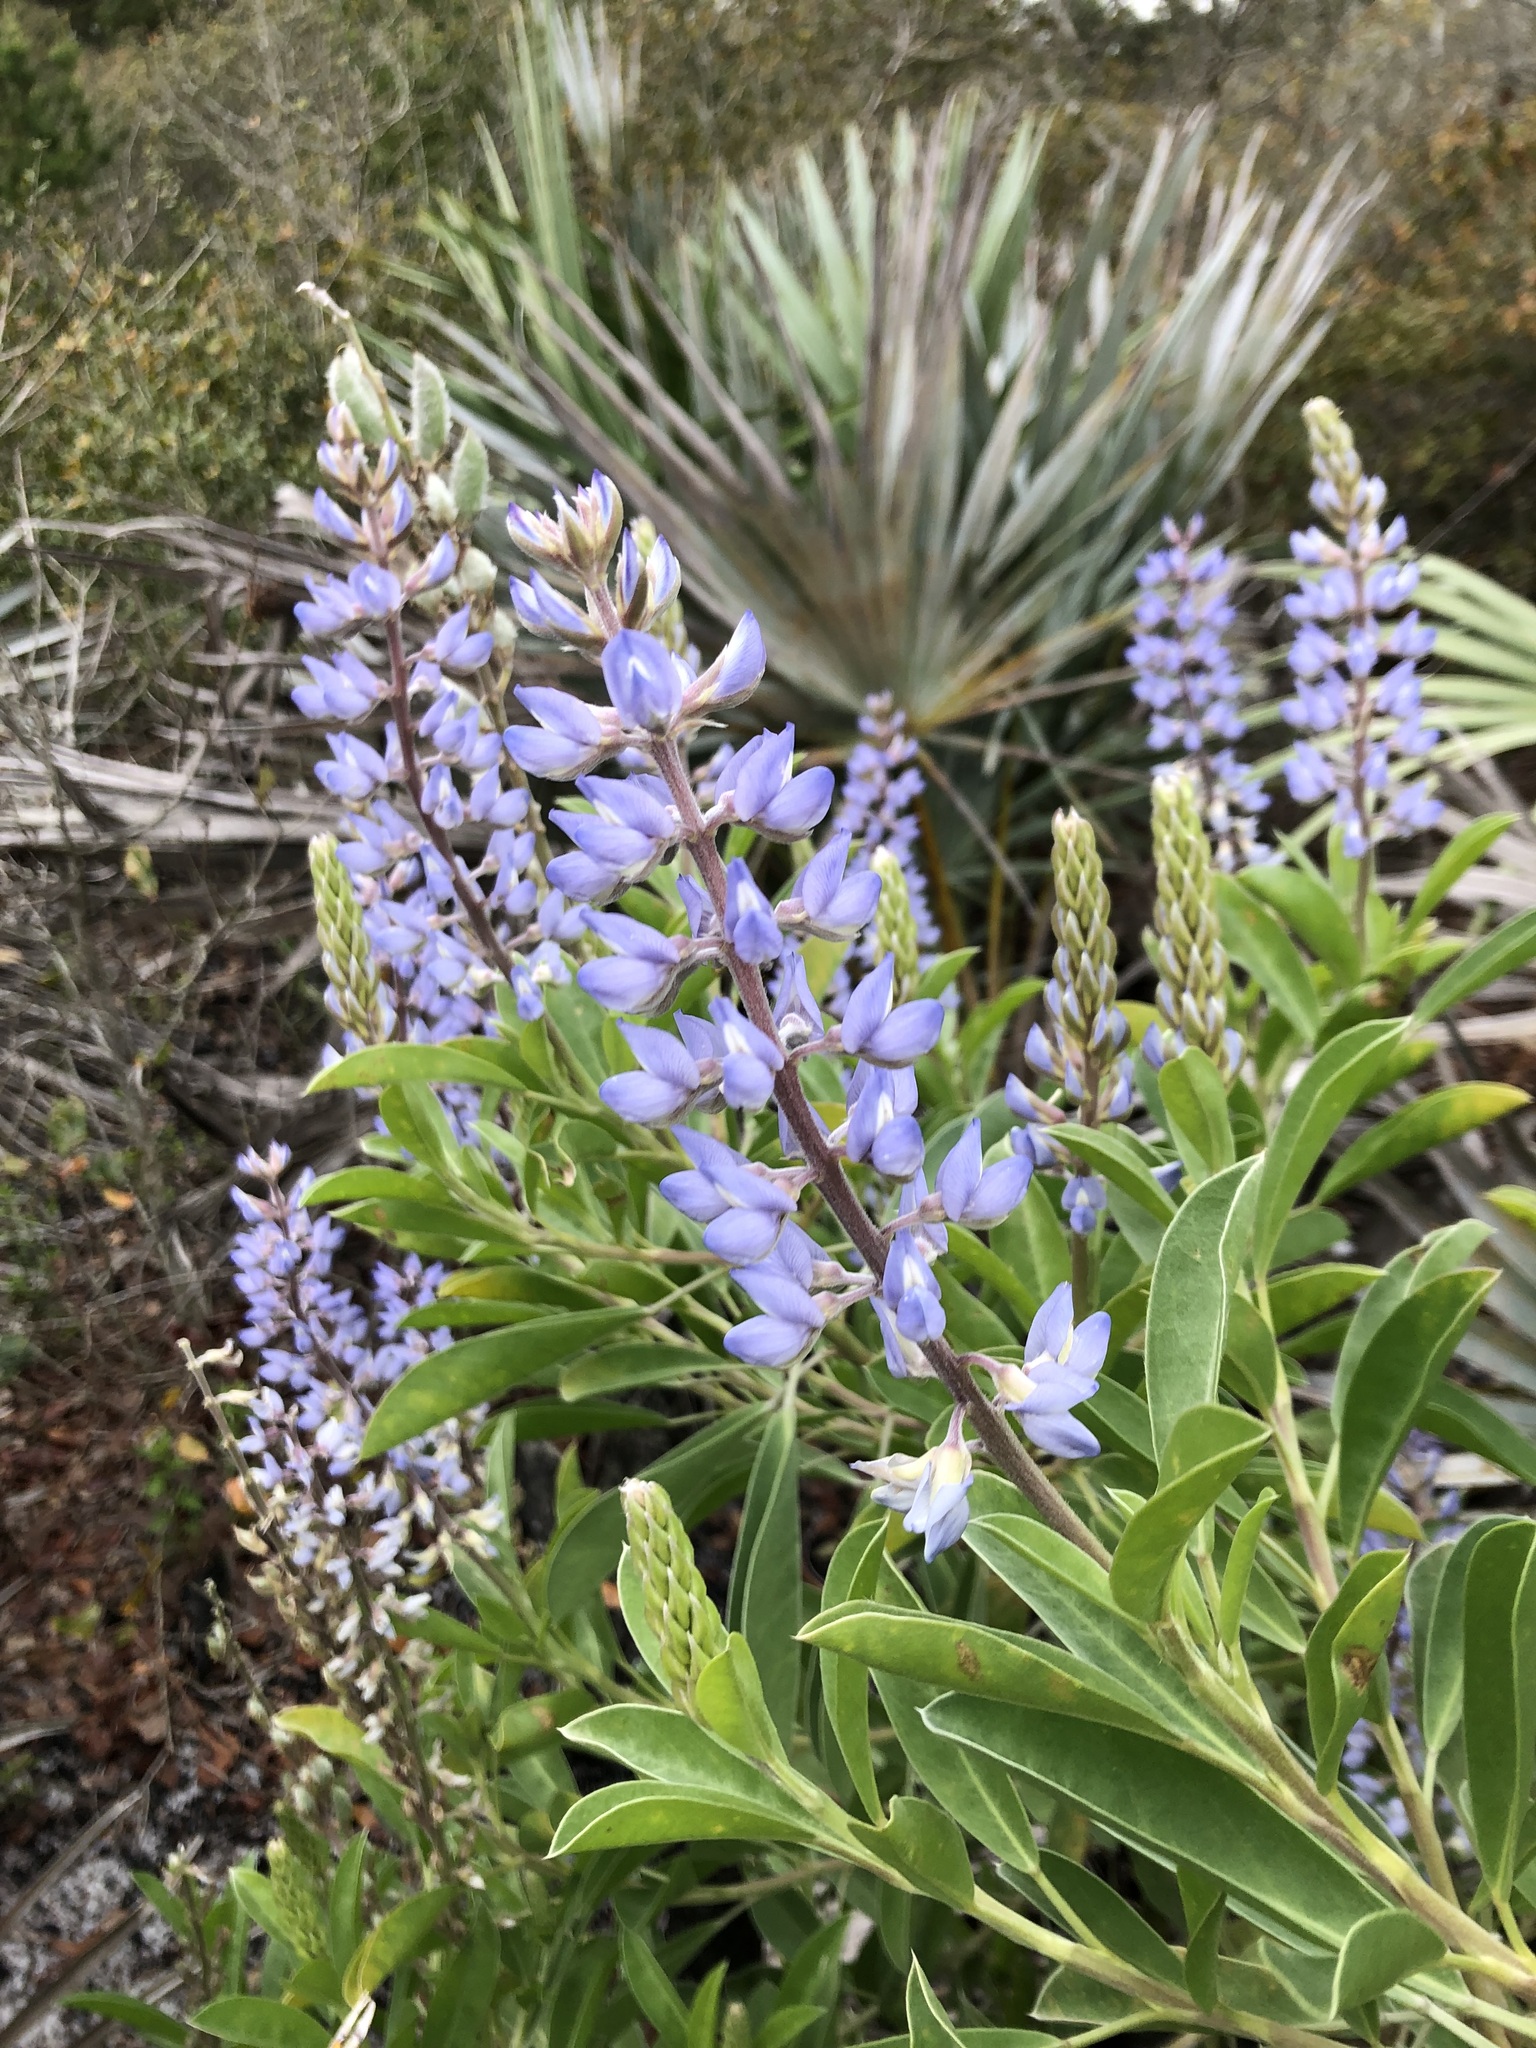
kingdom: Plantae
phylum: Tracheophyta
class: Magnoliopsida
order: Fabales
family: Fabaceae
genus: Lupinus
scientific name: Lupinus
